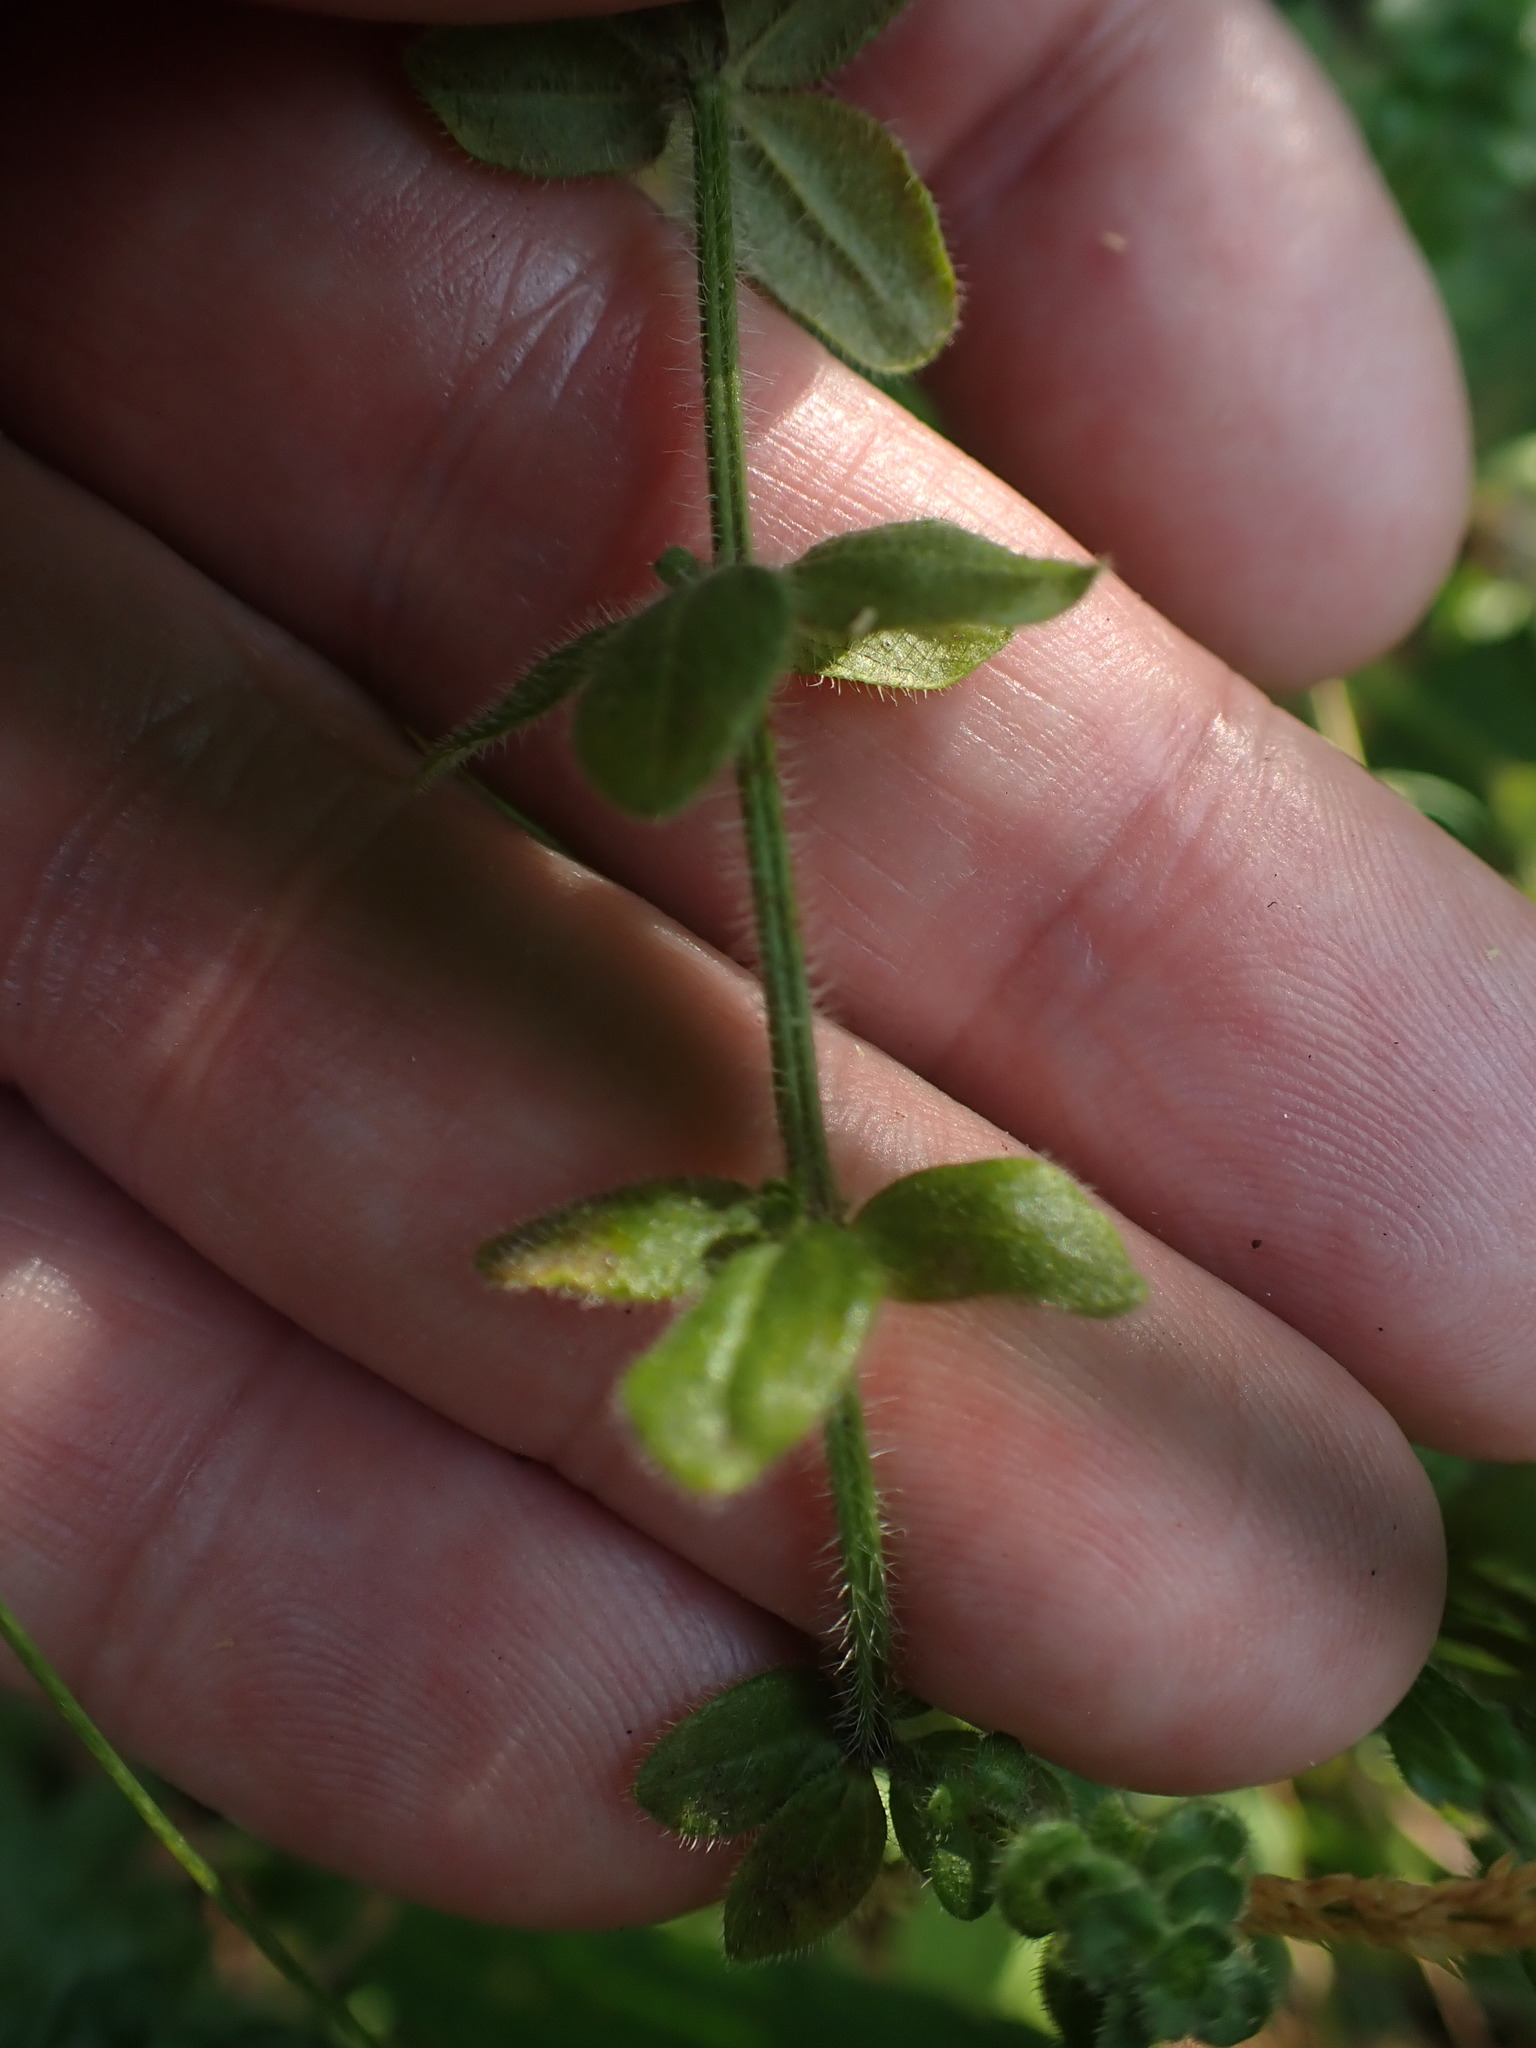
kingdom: Plantae
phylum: Tracheophyta
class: Magnoliopsida
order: Gentianales
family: Rubiaceae
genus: Galium
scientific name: Galium aparine
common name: Cleavers
